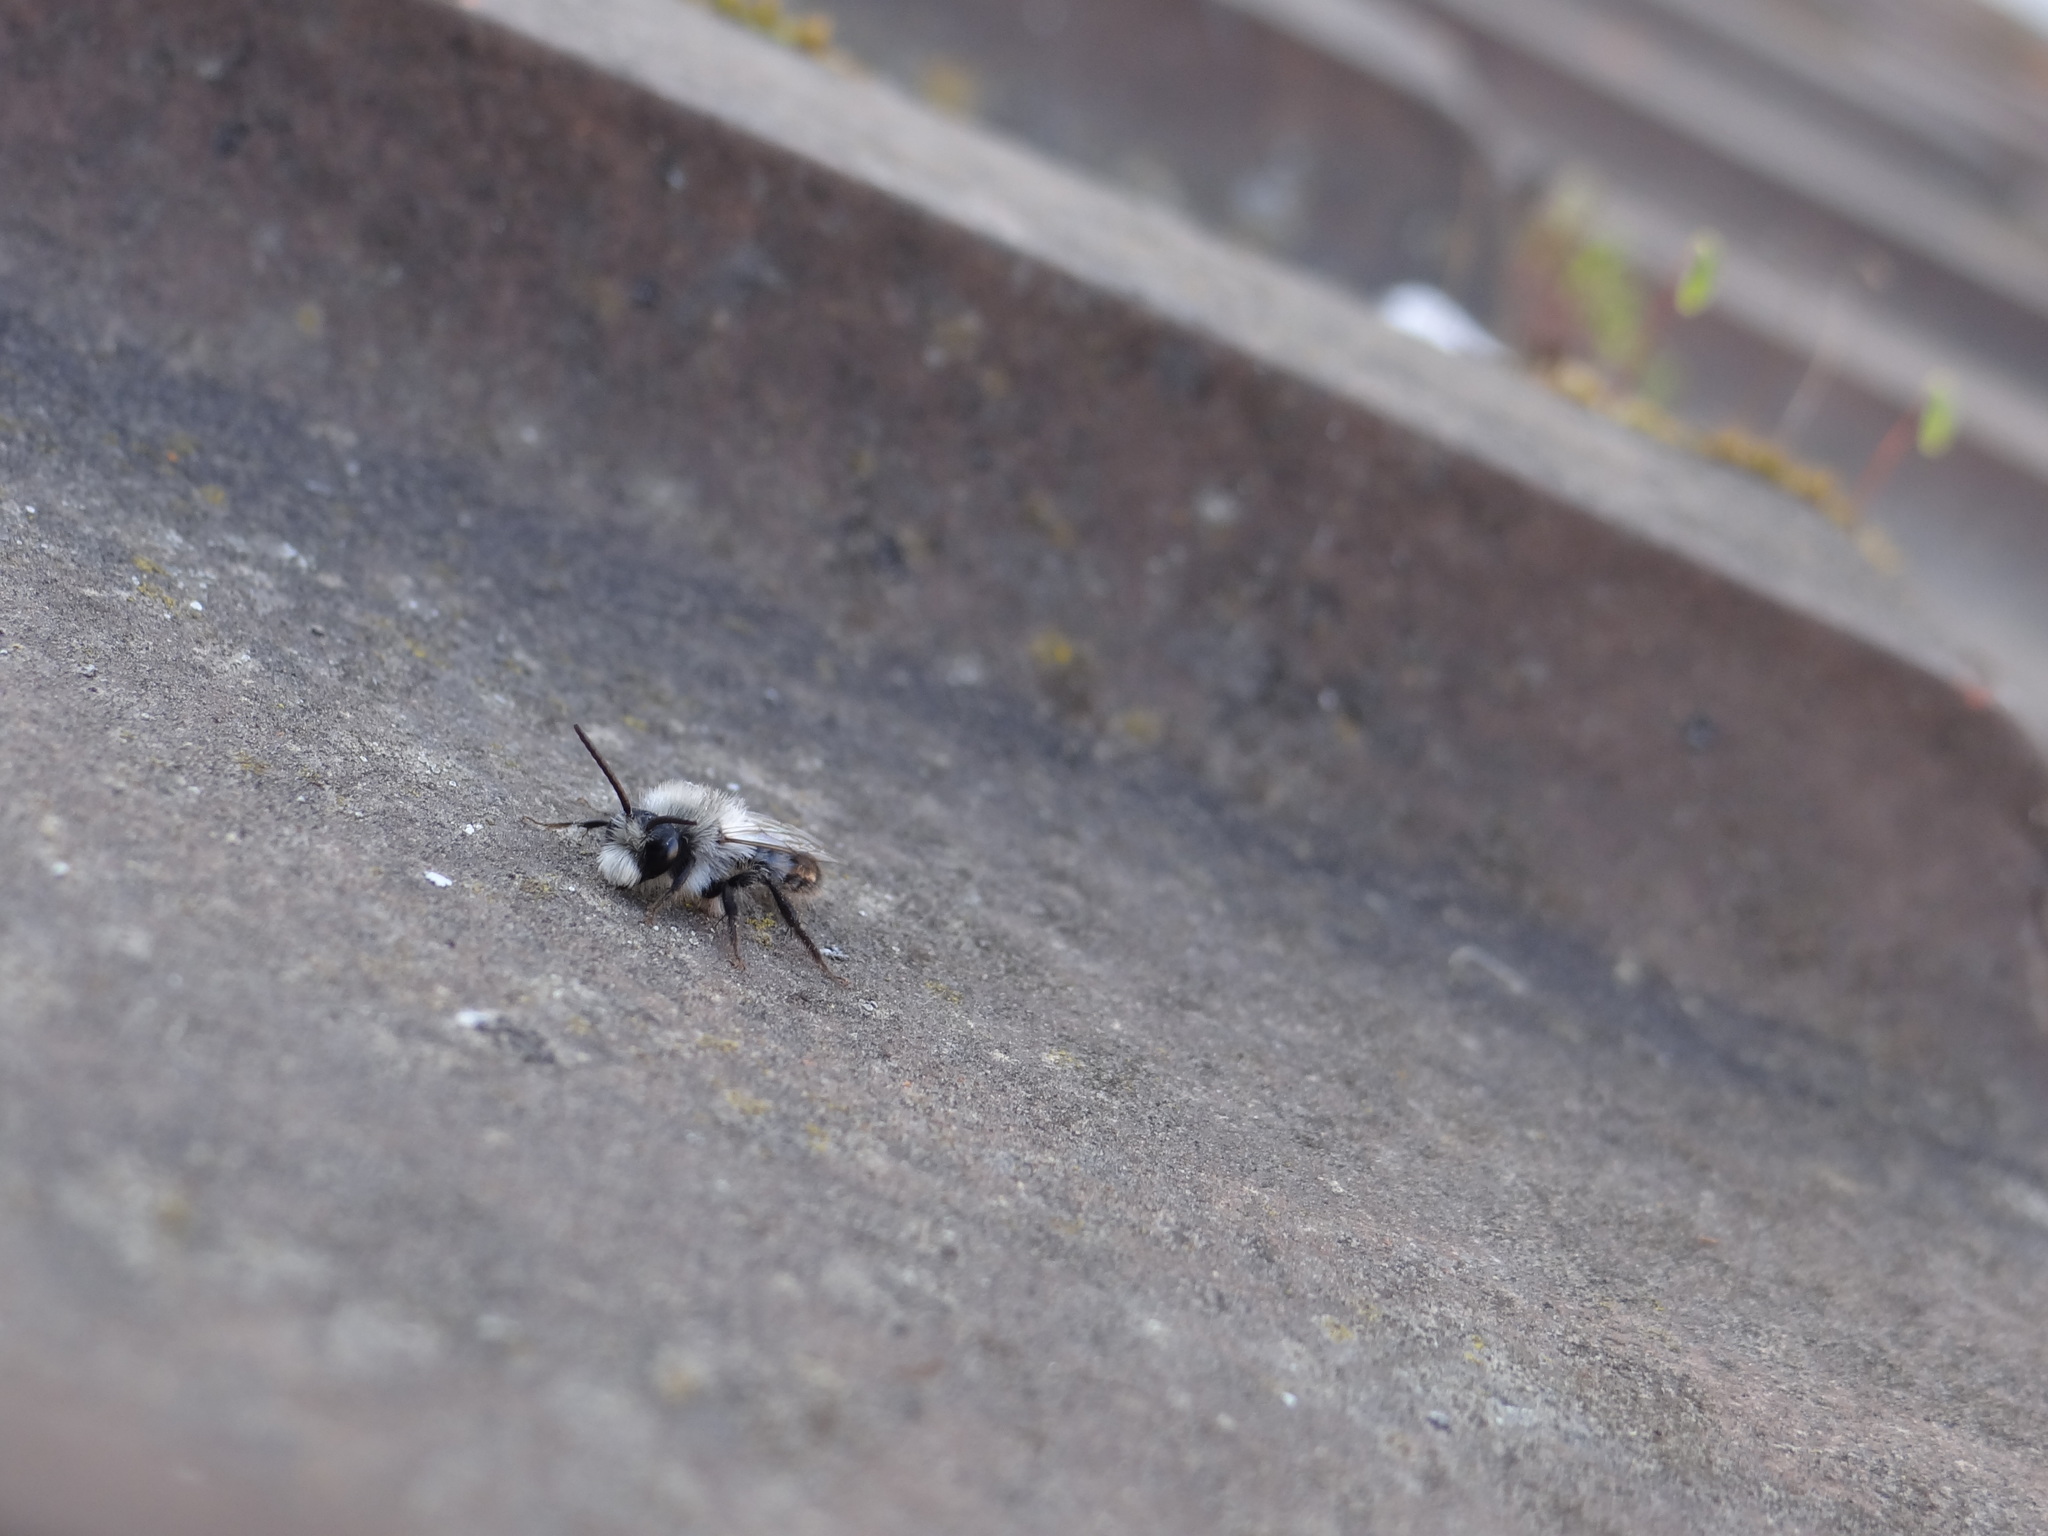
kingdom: Animalia
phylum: Arthropoda
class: Insecta
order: Hymenoptera
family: Andrenidae
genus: Andrena
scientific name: Andrena cineraria
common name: Ashy mining bee
